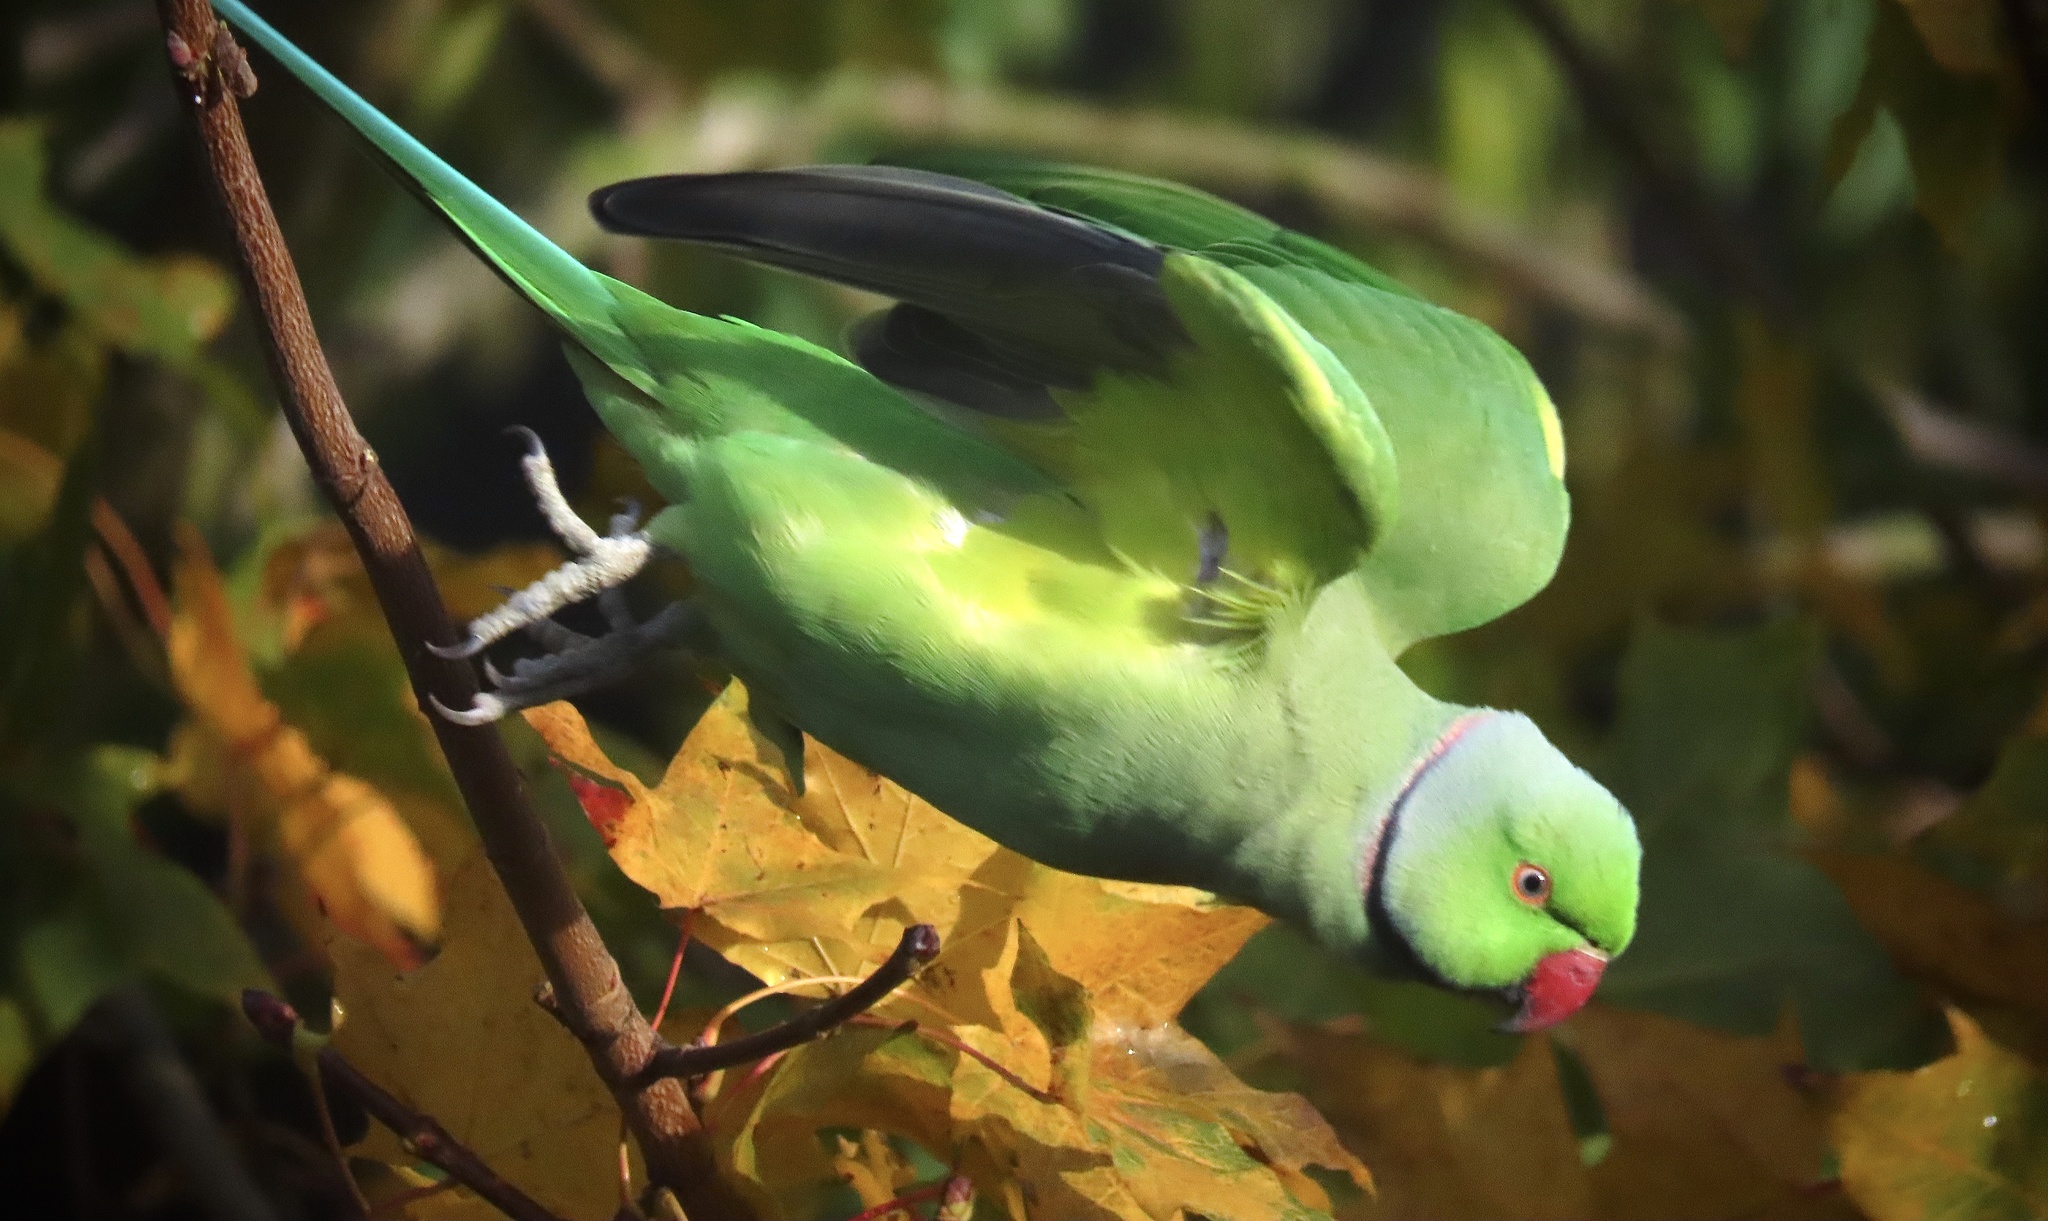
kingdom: Animalia
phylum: Chordata
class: Aves
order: Psittaciformes
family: Psittacidae
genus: Psittacula
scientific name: Psittacula krameri
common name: Rose-ringed parakeet
